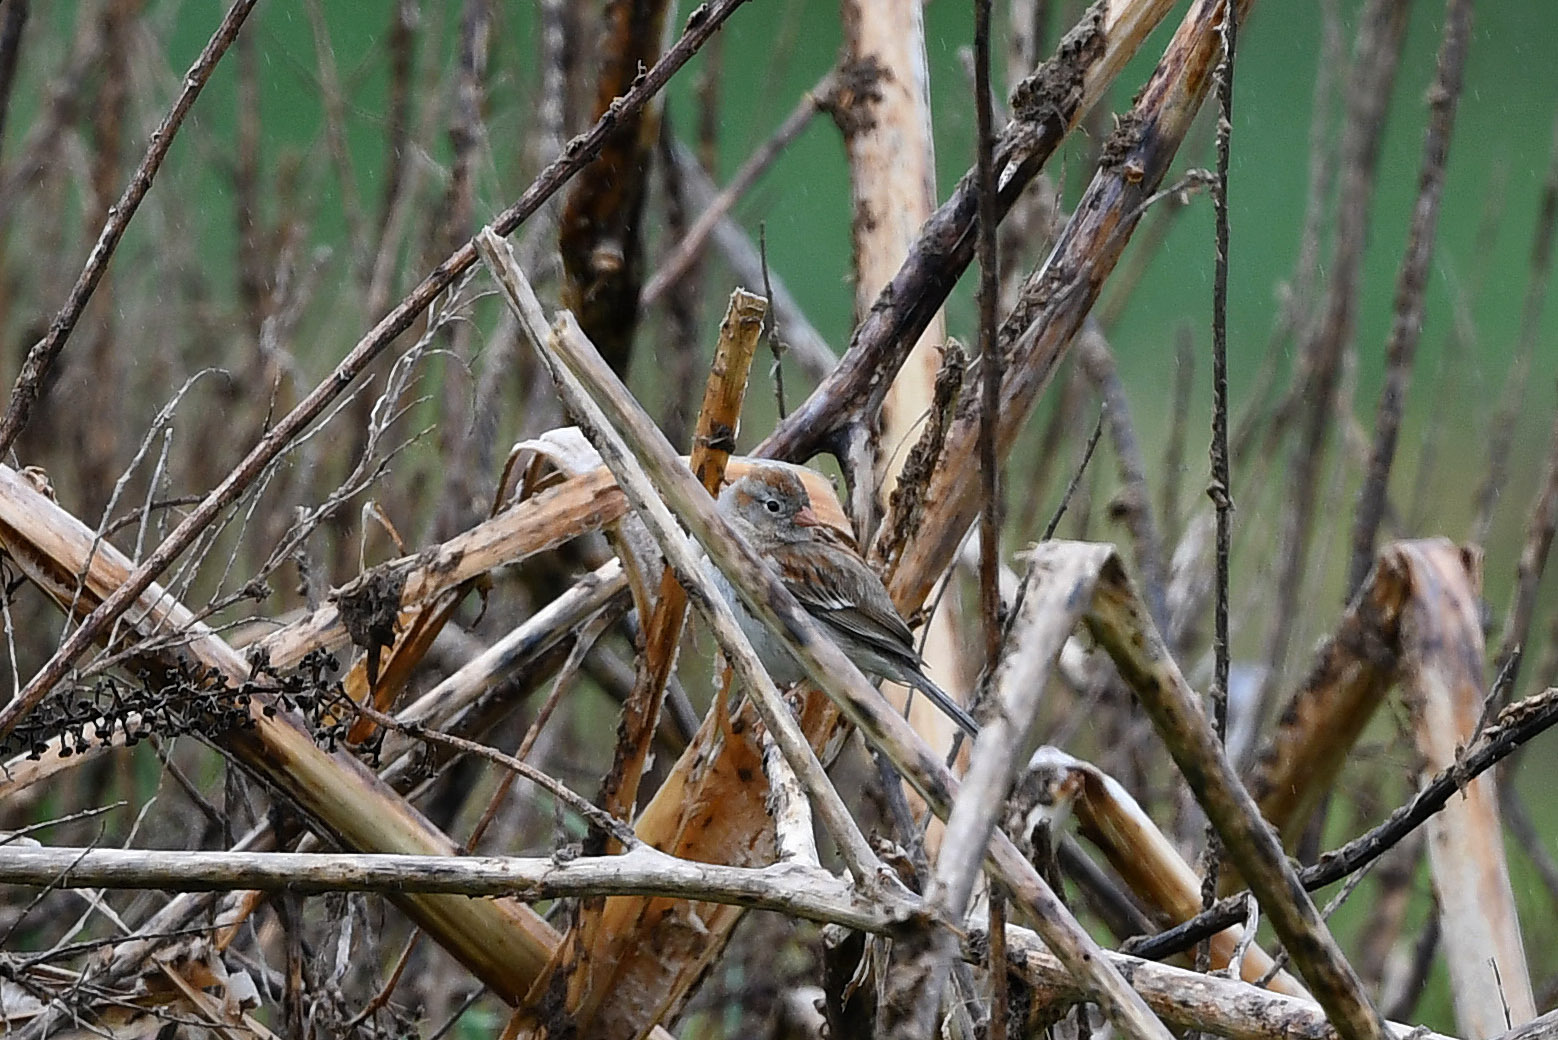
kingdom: Animalia
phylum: Chordata
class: Aves
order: Passeriformes
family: Passerellidae
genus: Spizella
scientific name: Spizella pusilla
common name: Field sparrow
